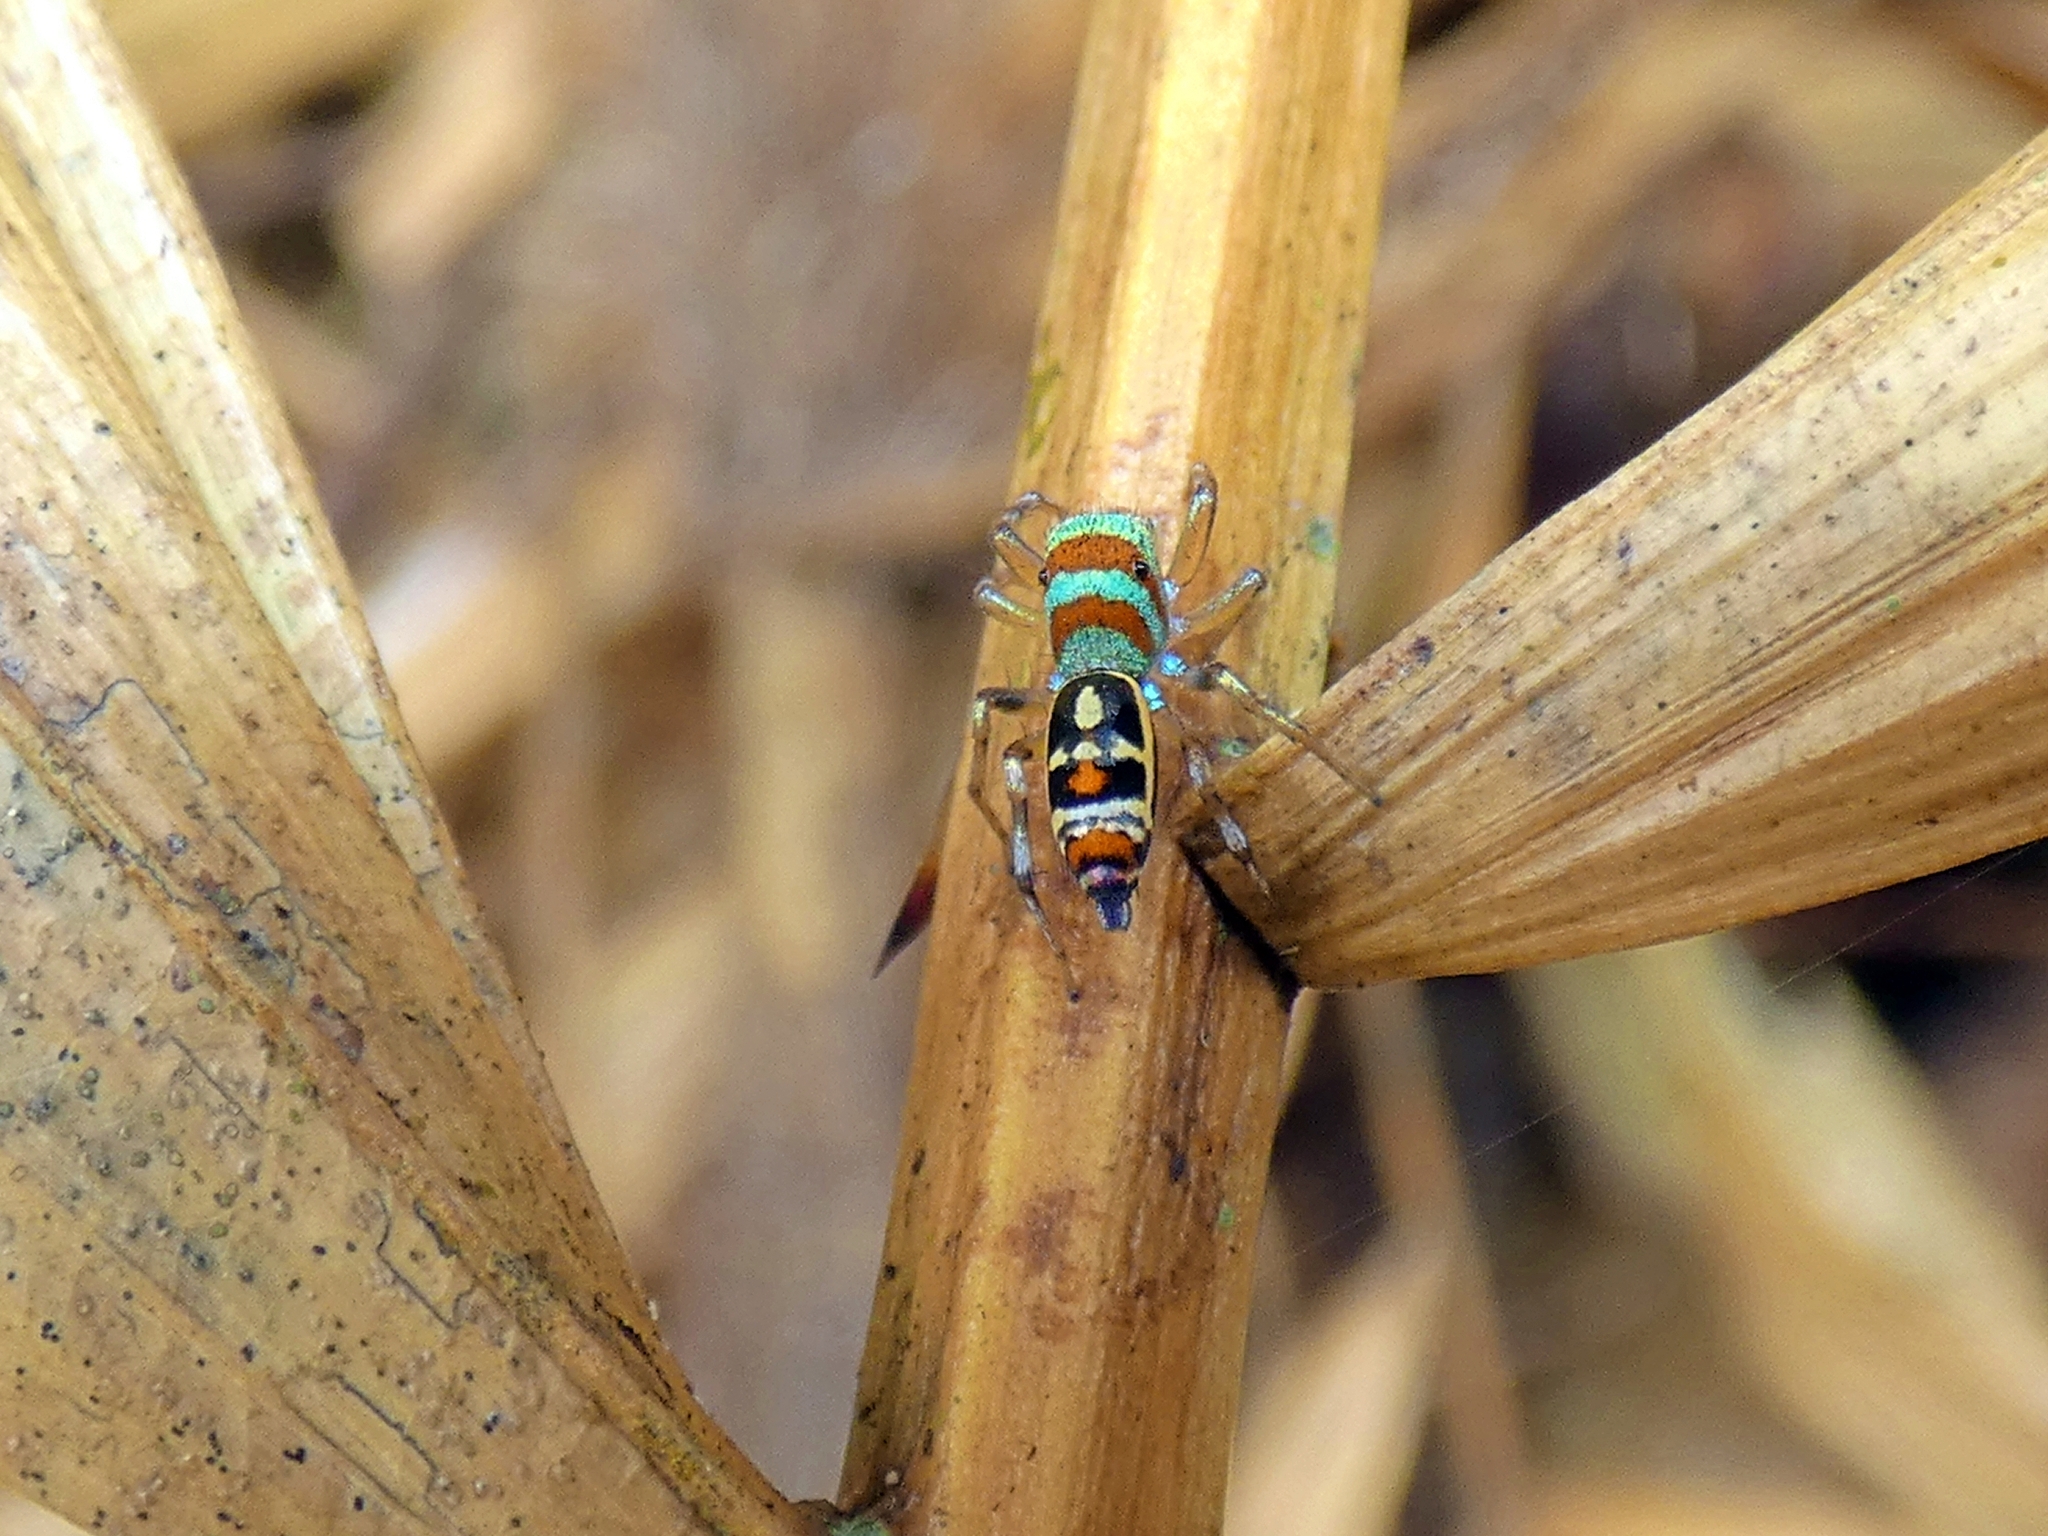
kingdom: Animalia
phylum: Arthropoda
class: Arachnida
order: Araneae
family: Salticidae
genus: Cosmophasis
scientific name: Cosmophasis micarioides
